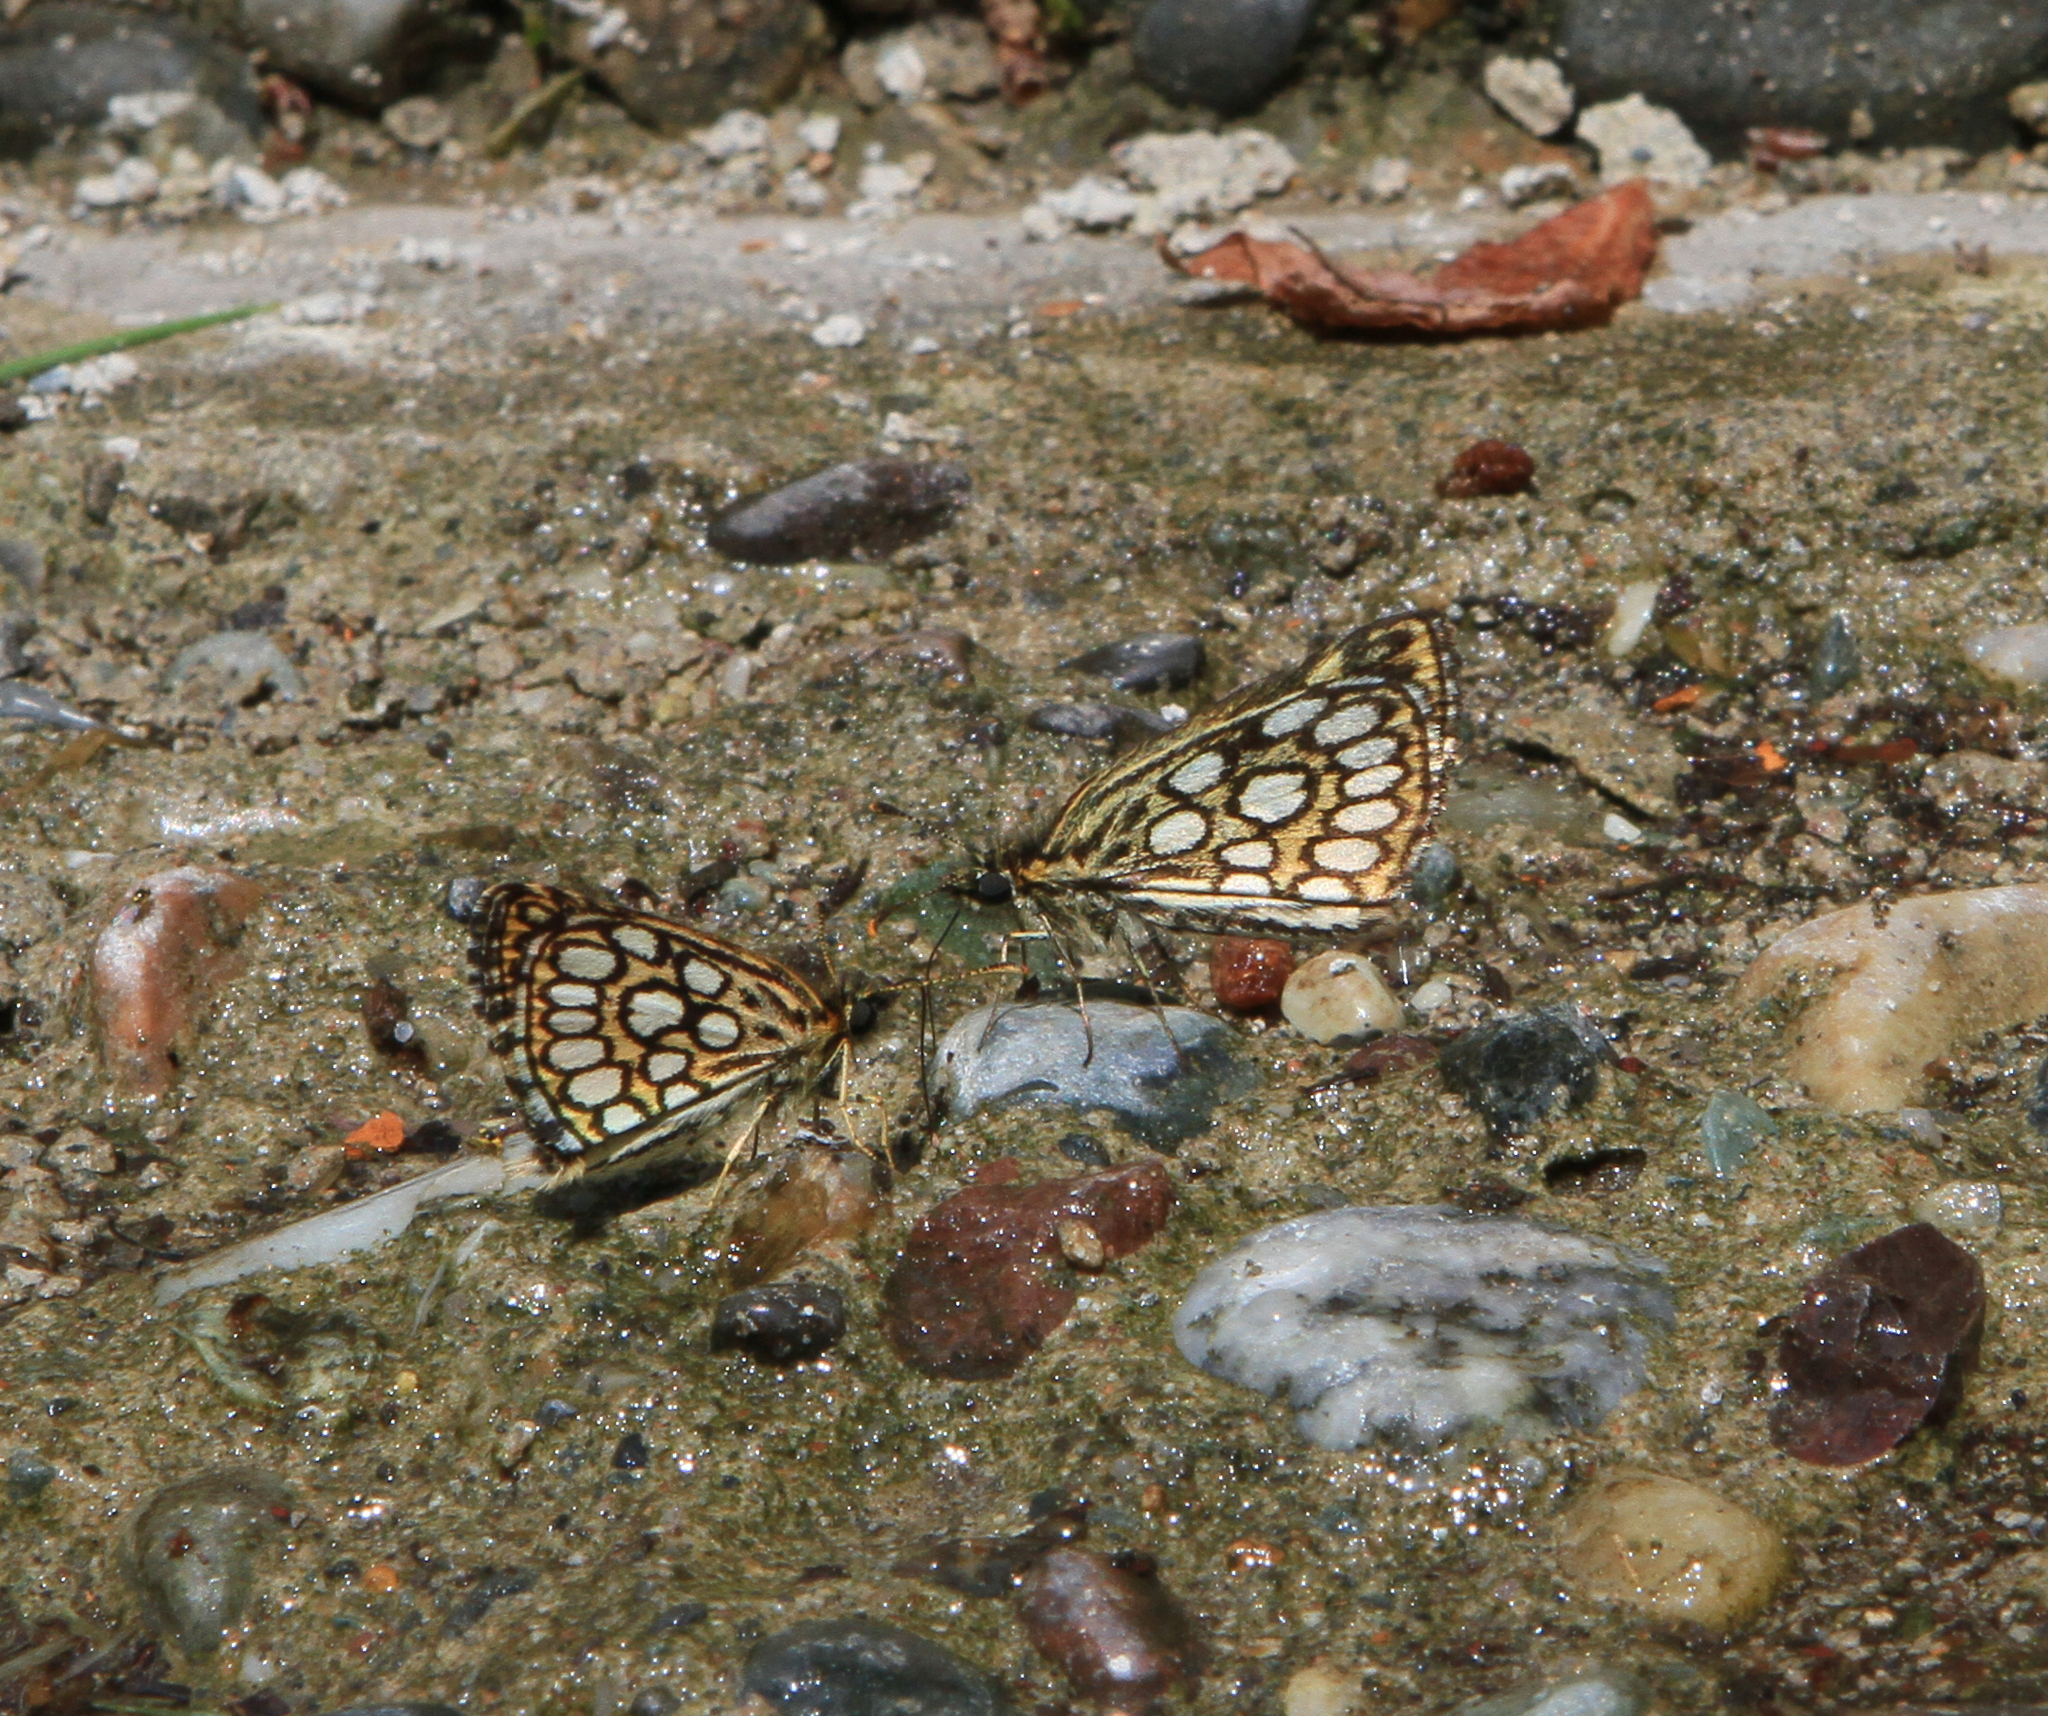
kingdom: Animalia
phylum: Arthropoda
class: Insecta
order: Lepidoptera
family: Hesperiidae
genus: Heteropterus
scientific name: Heteropterus morpheus
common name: Large chequered skipper
